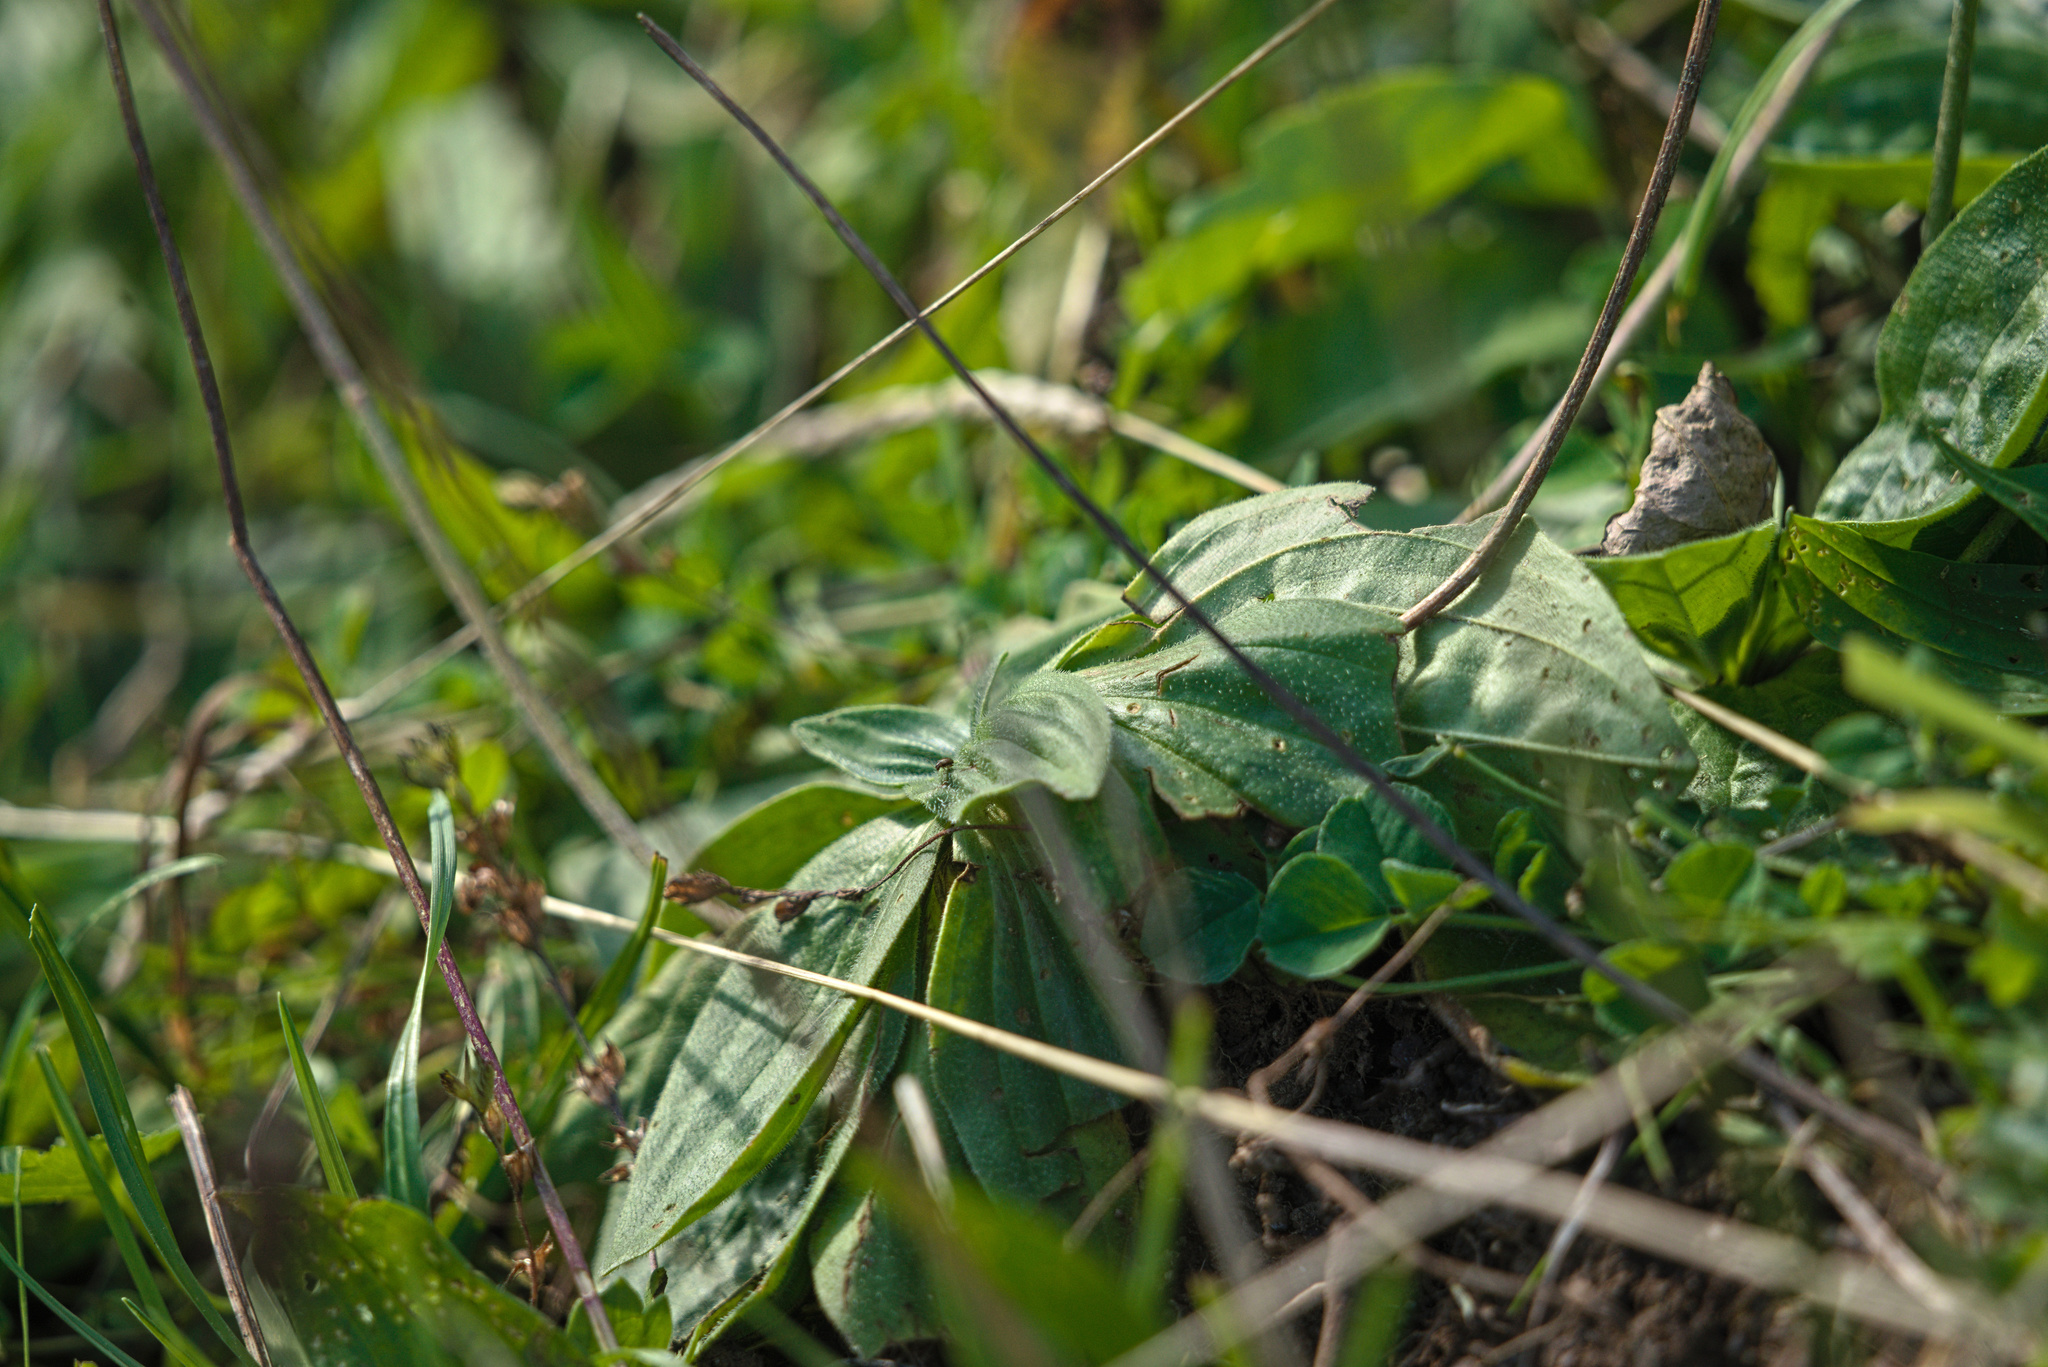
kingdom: Plantae
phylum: Tracheophyta
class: Magnoliopsida
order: Lamiales
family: Plantaginaceae
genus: Plantago
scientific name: Plantago media
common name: Hoary plantain
